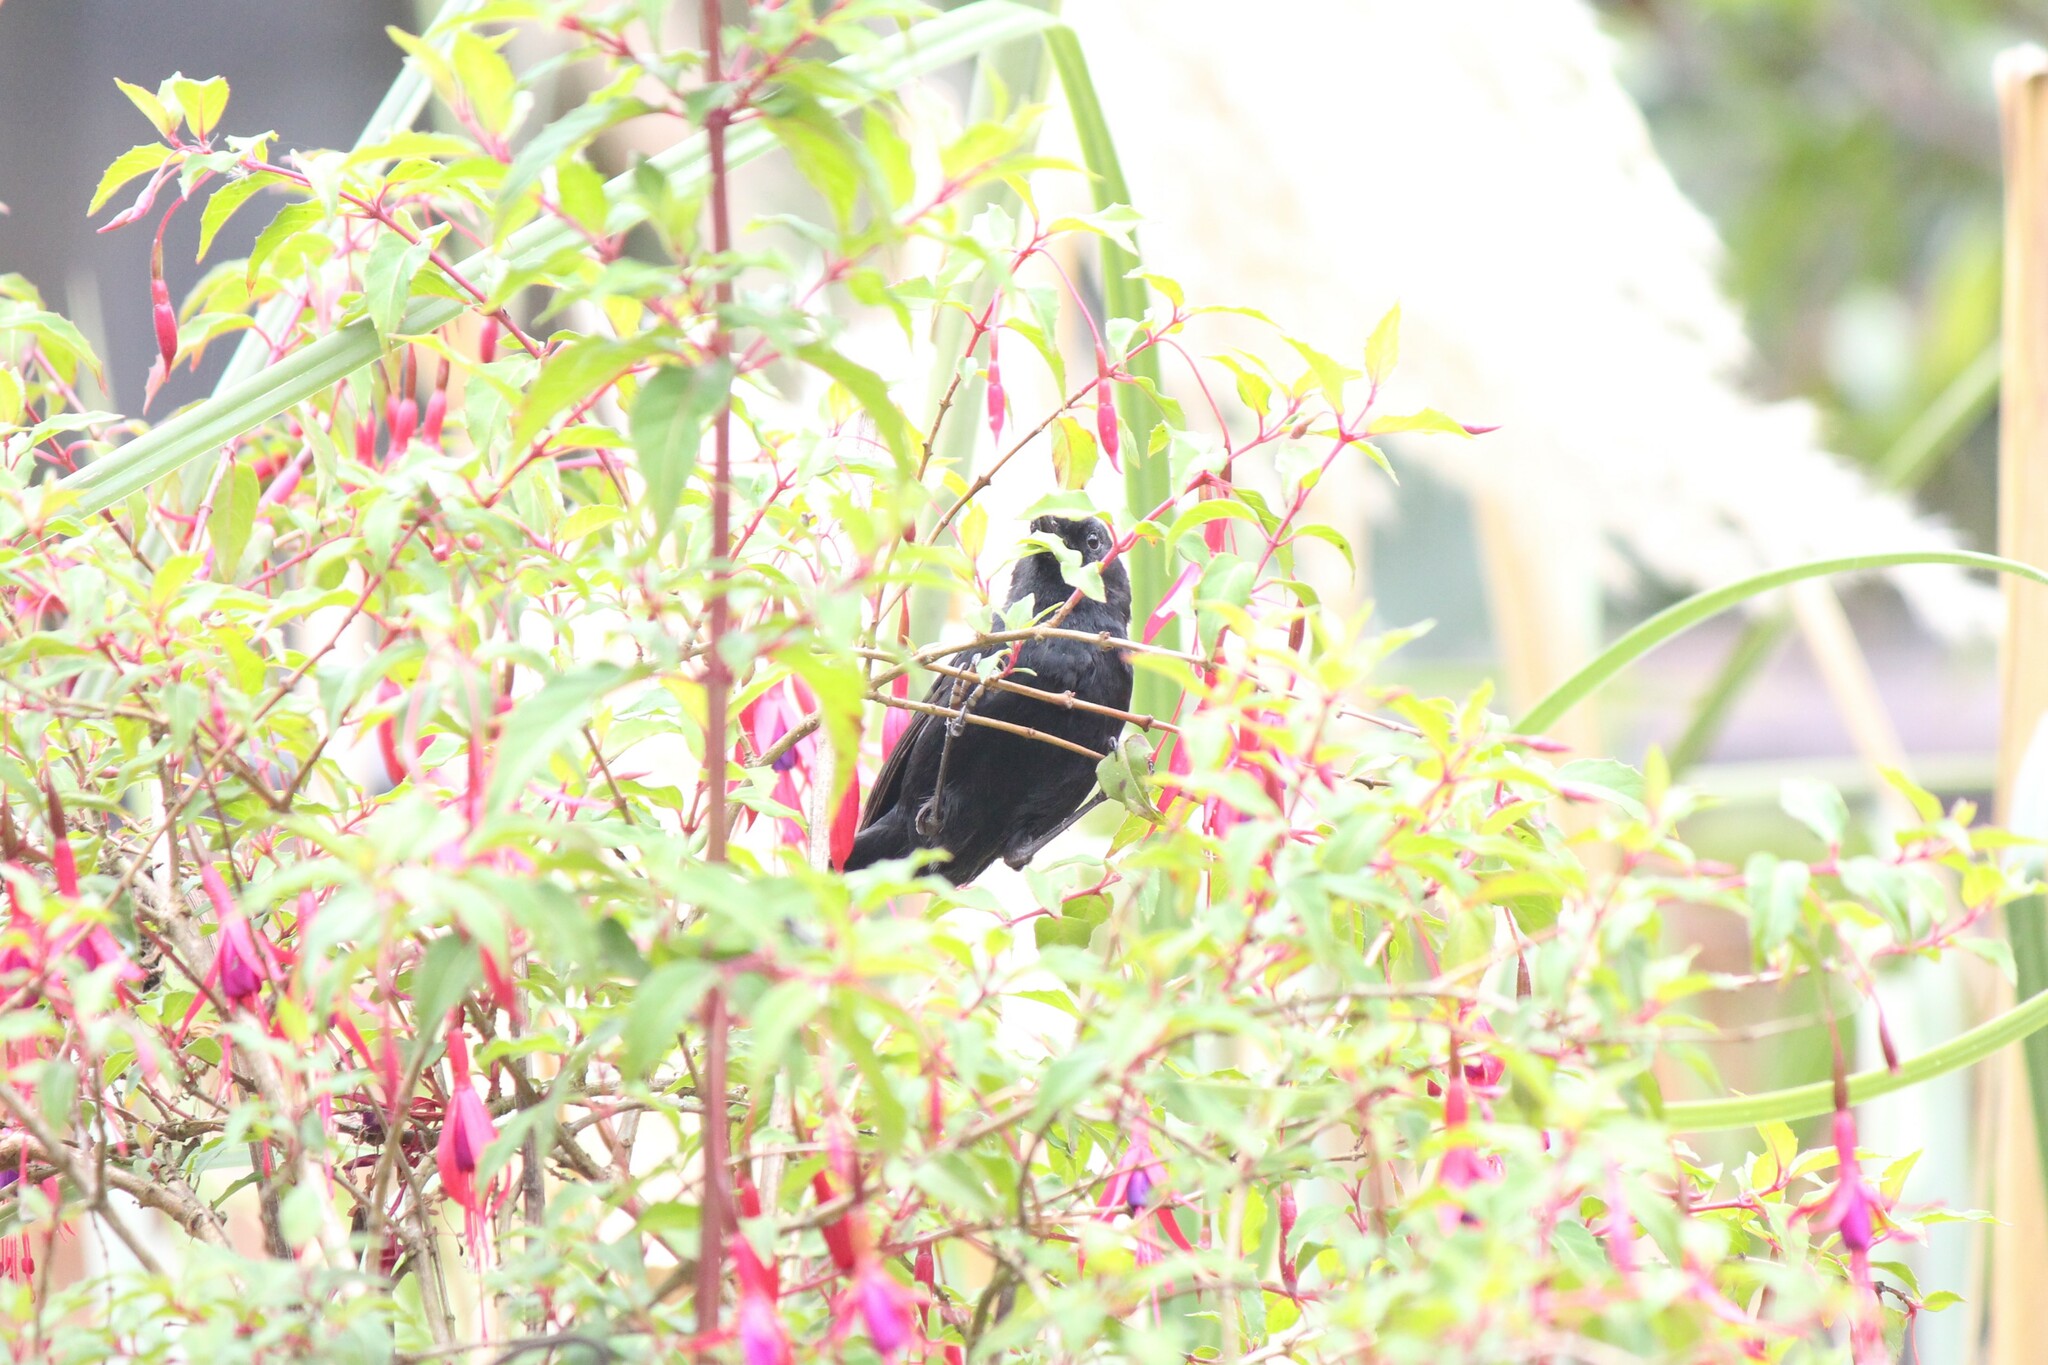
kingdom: Animalia
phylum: Chordata
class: Aves
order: Passeriformes
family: Thraupidae
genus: Diglossa
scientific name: Diglossa humeralis
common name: Black flowerpiercer
